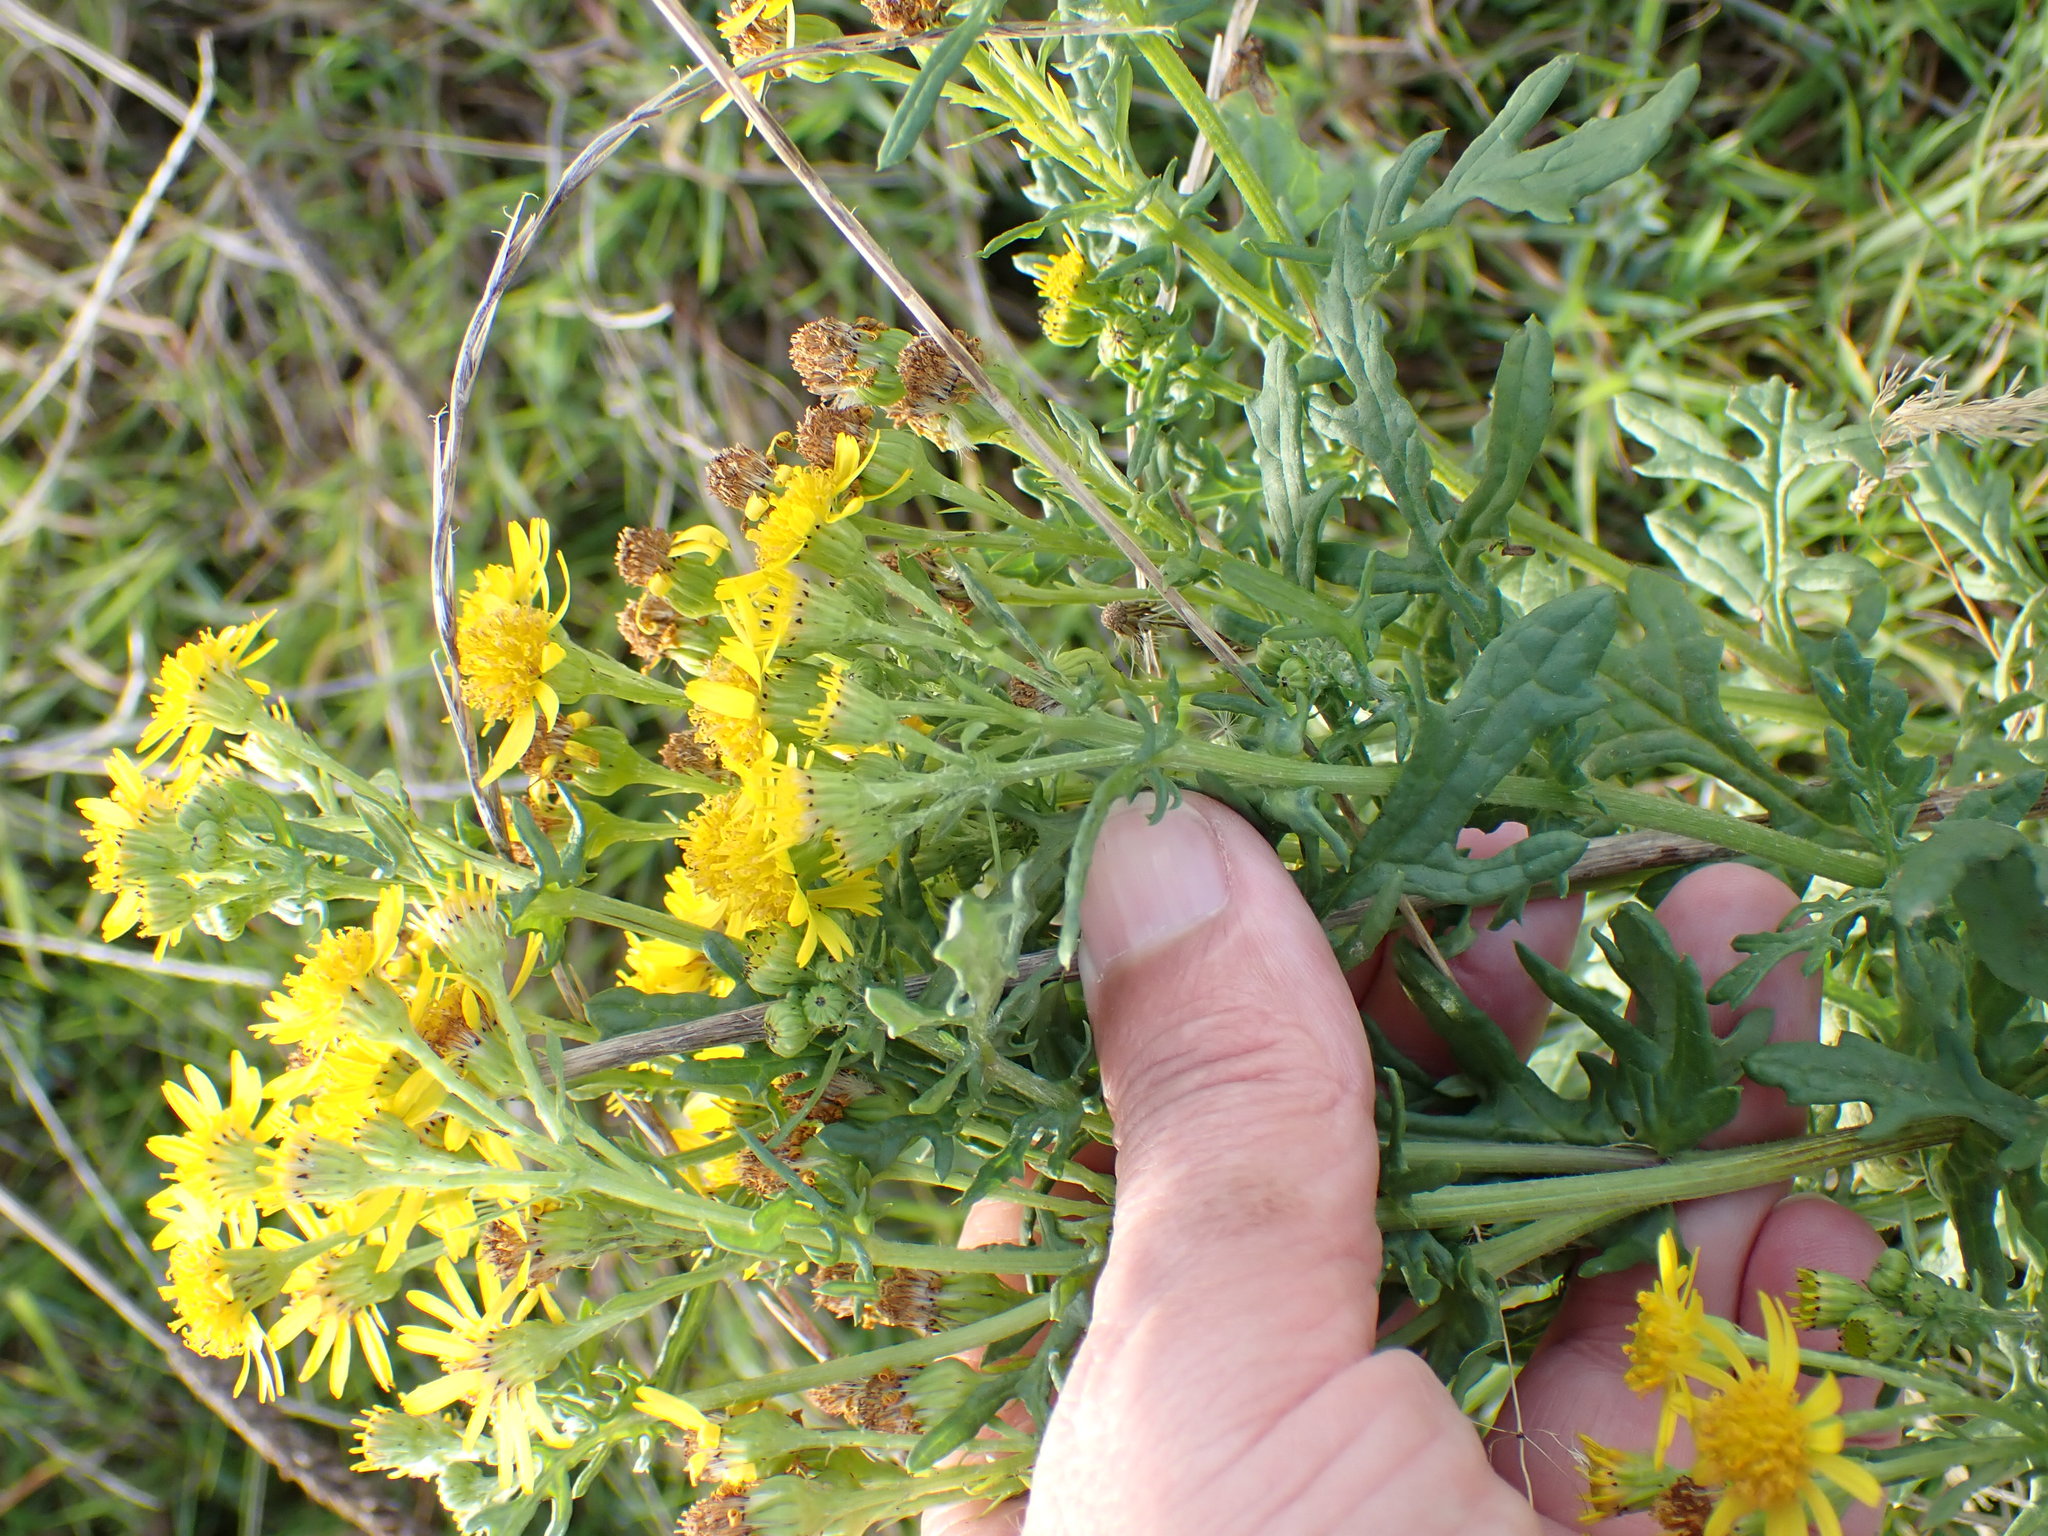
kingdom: Plantae
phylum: Tracheophyta
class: Magnoliopsida
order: Asterales
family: Asteraceae
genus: Jacobaea
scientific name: Jacobaea vulgaris
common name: Stinking willie
